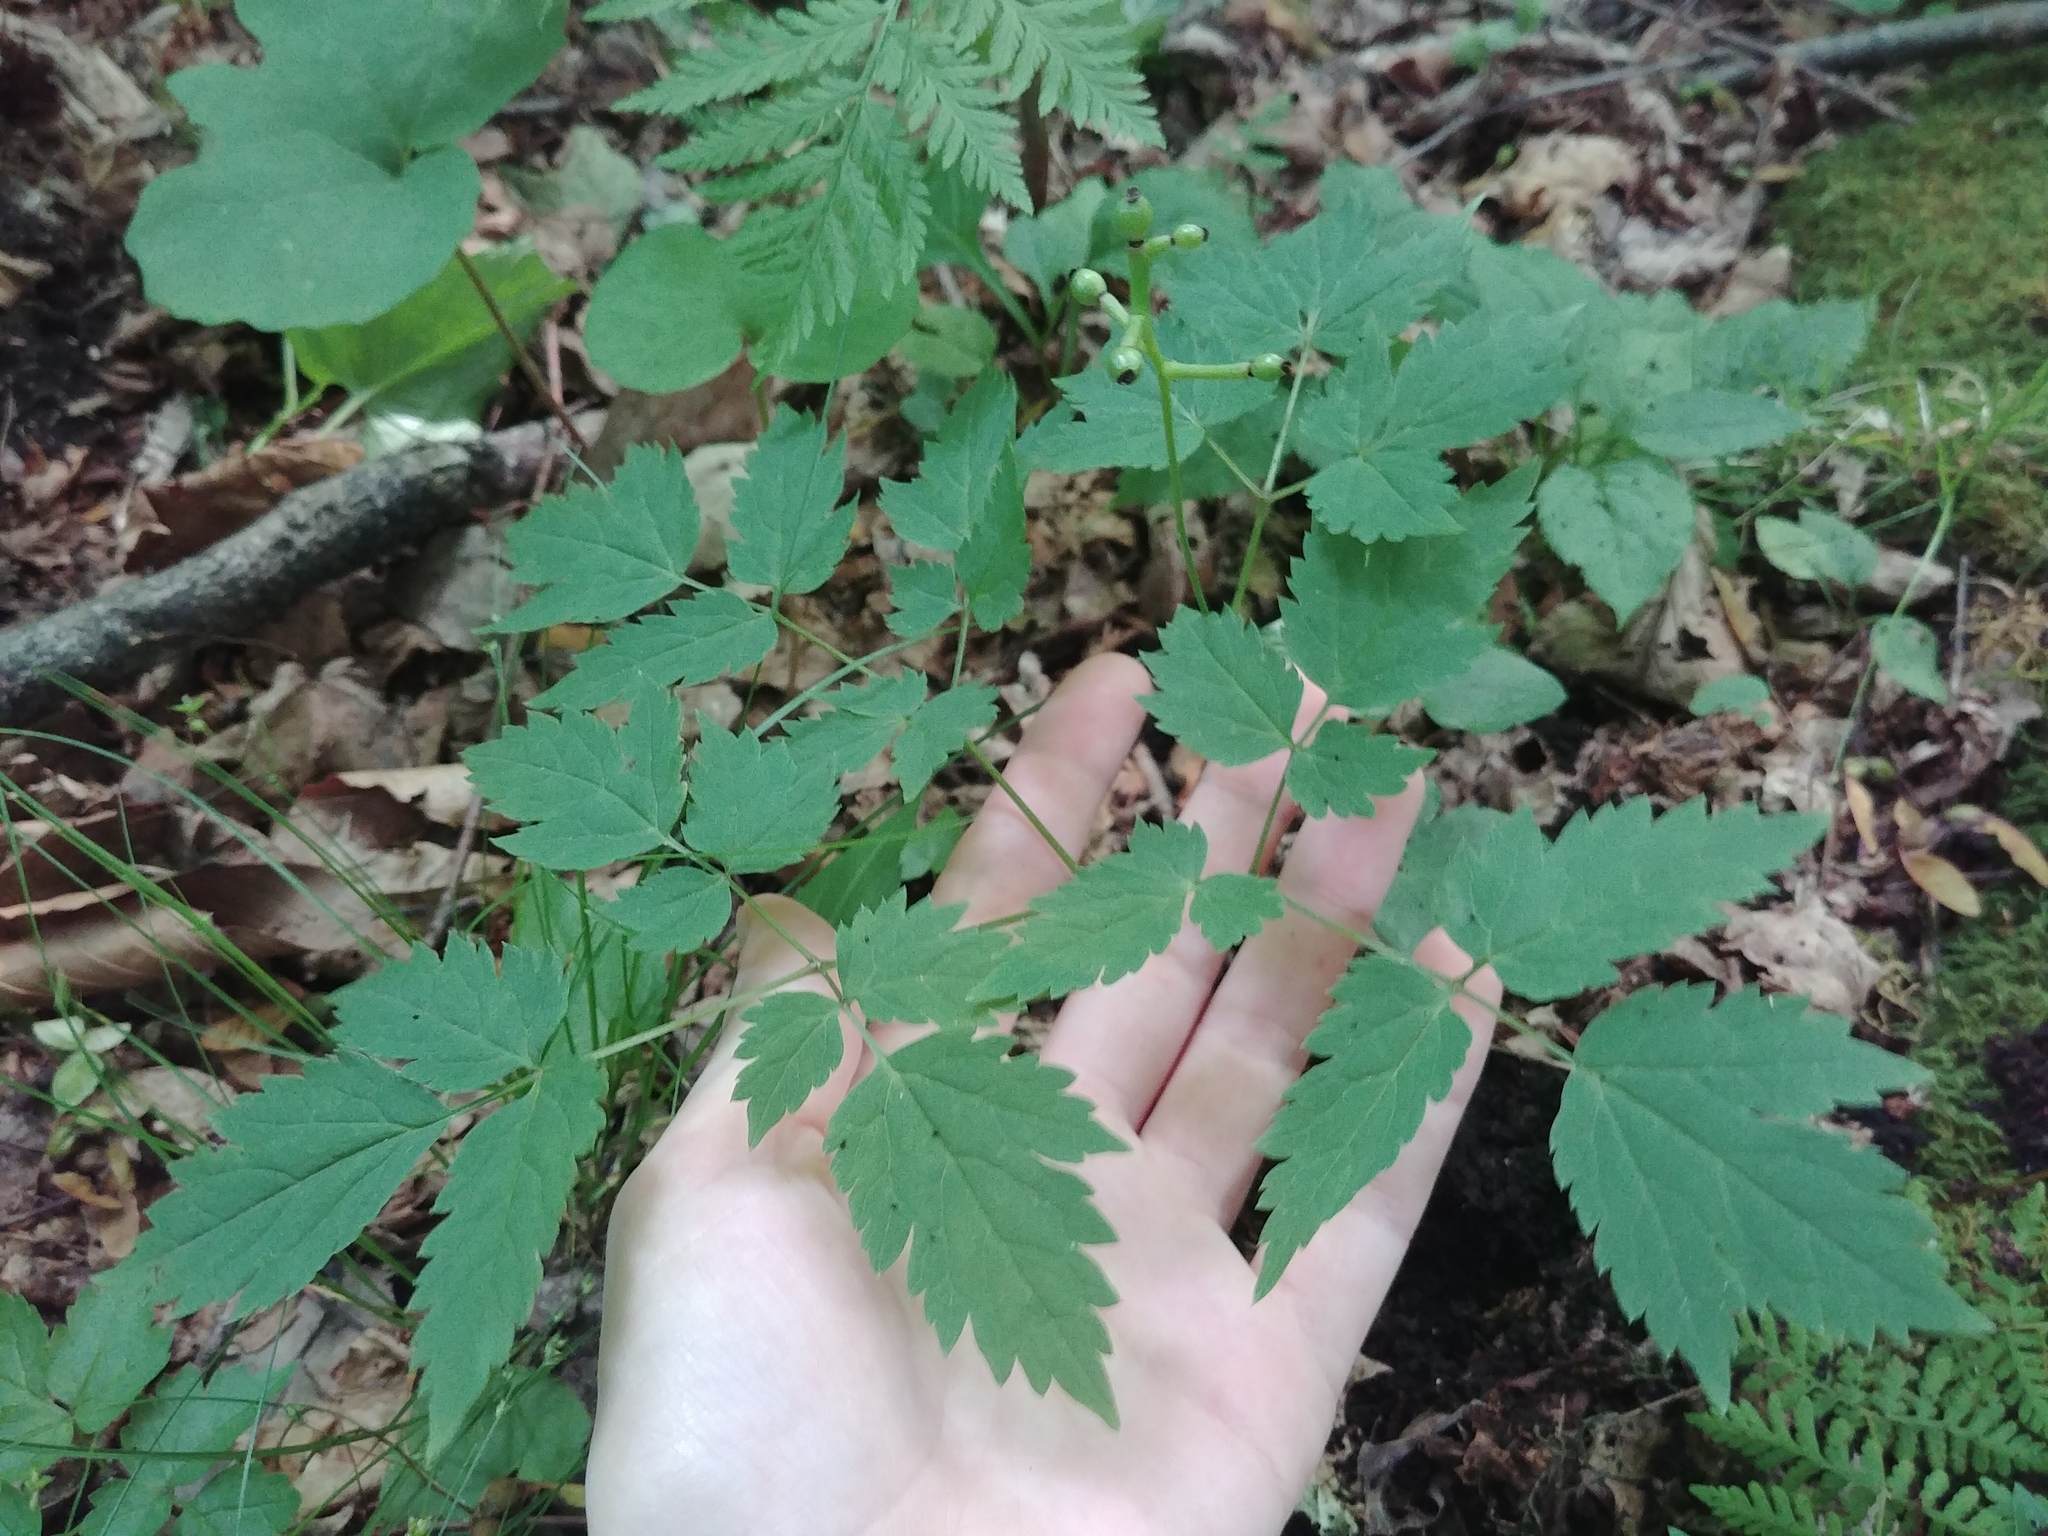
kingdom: Plantae
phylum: Tracheophyta
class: Magnoliopsida
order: Ranunculales
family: Ranunculaceae
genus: Actaea
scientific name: Actaea pachypoda
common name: Doll's-eyes
